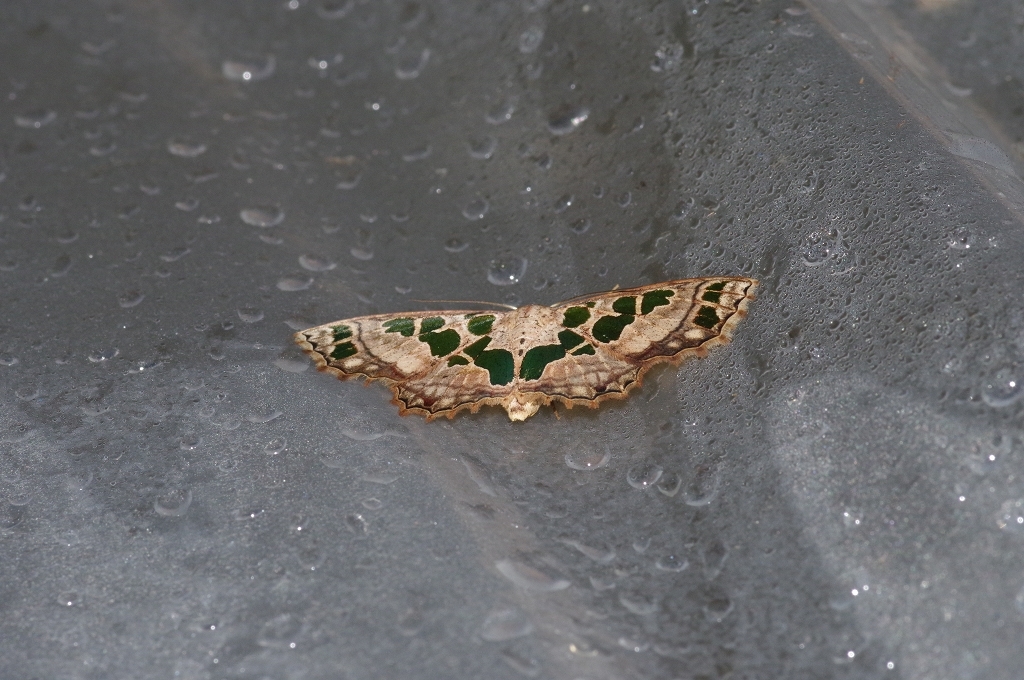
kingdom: Animalia
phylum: Arthropoda
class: Insecta
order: Lepidoptera
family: Geometridae
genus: Scopula
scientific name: Scopula divisaria
